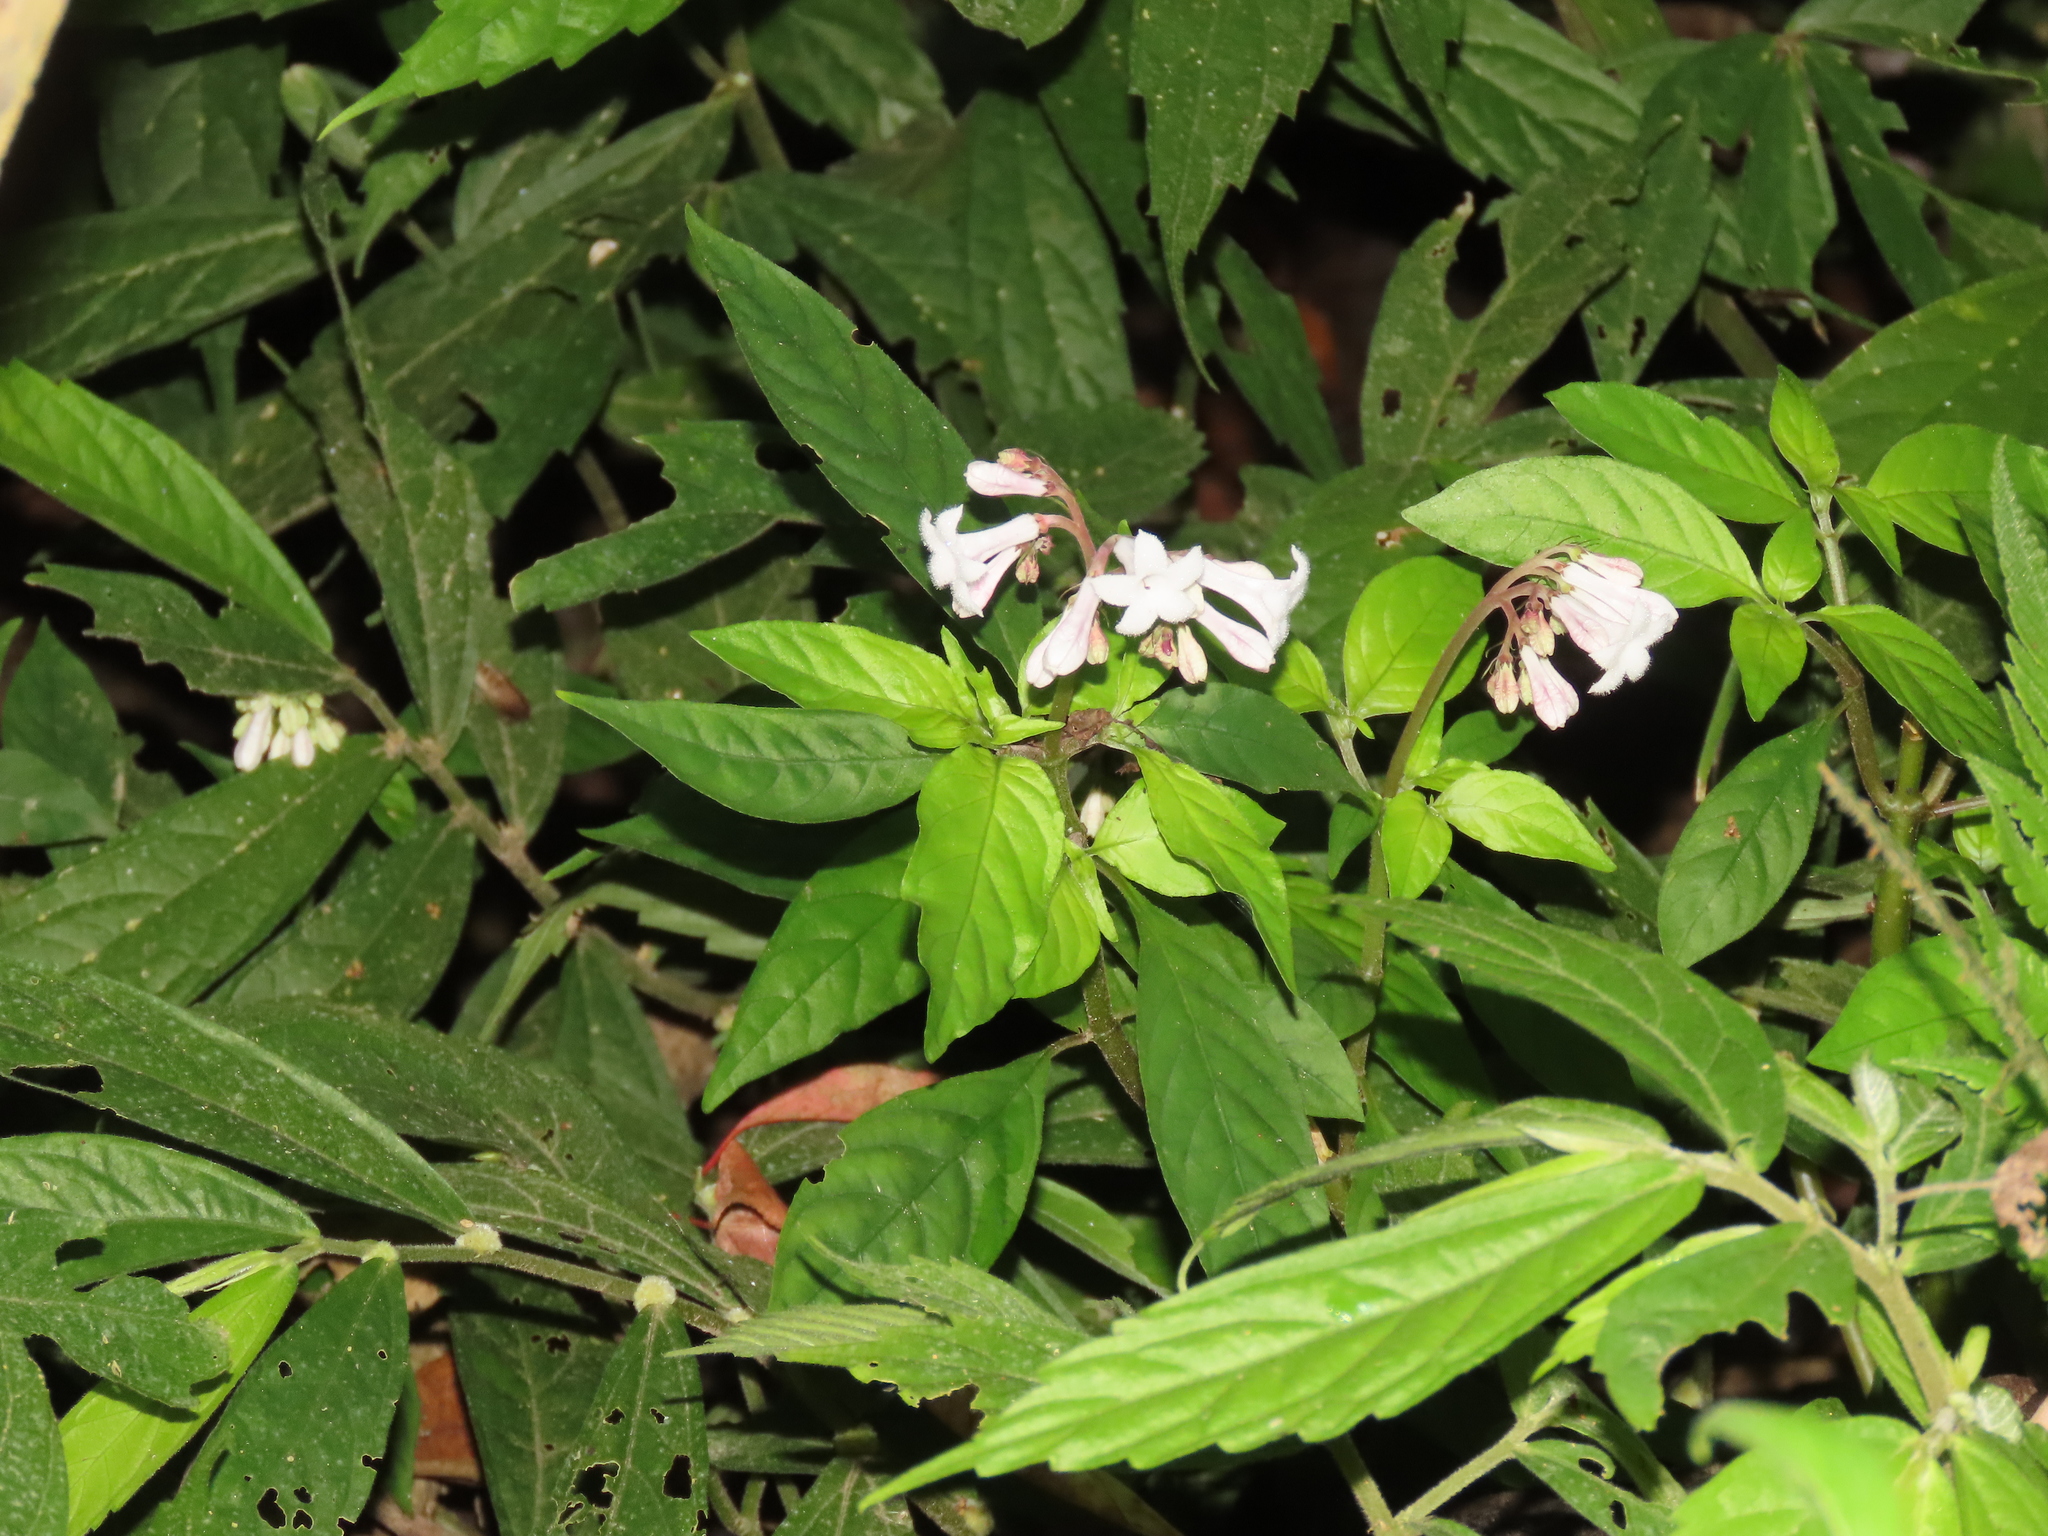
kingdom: Plantae
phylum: Tracheophyta
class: Magnoliopsida
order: Gentianales
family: Rubiaceae
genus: Ophiorrhiza
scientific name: Ophiorrhiza japonica
